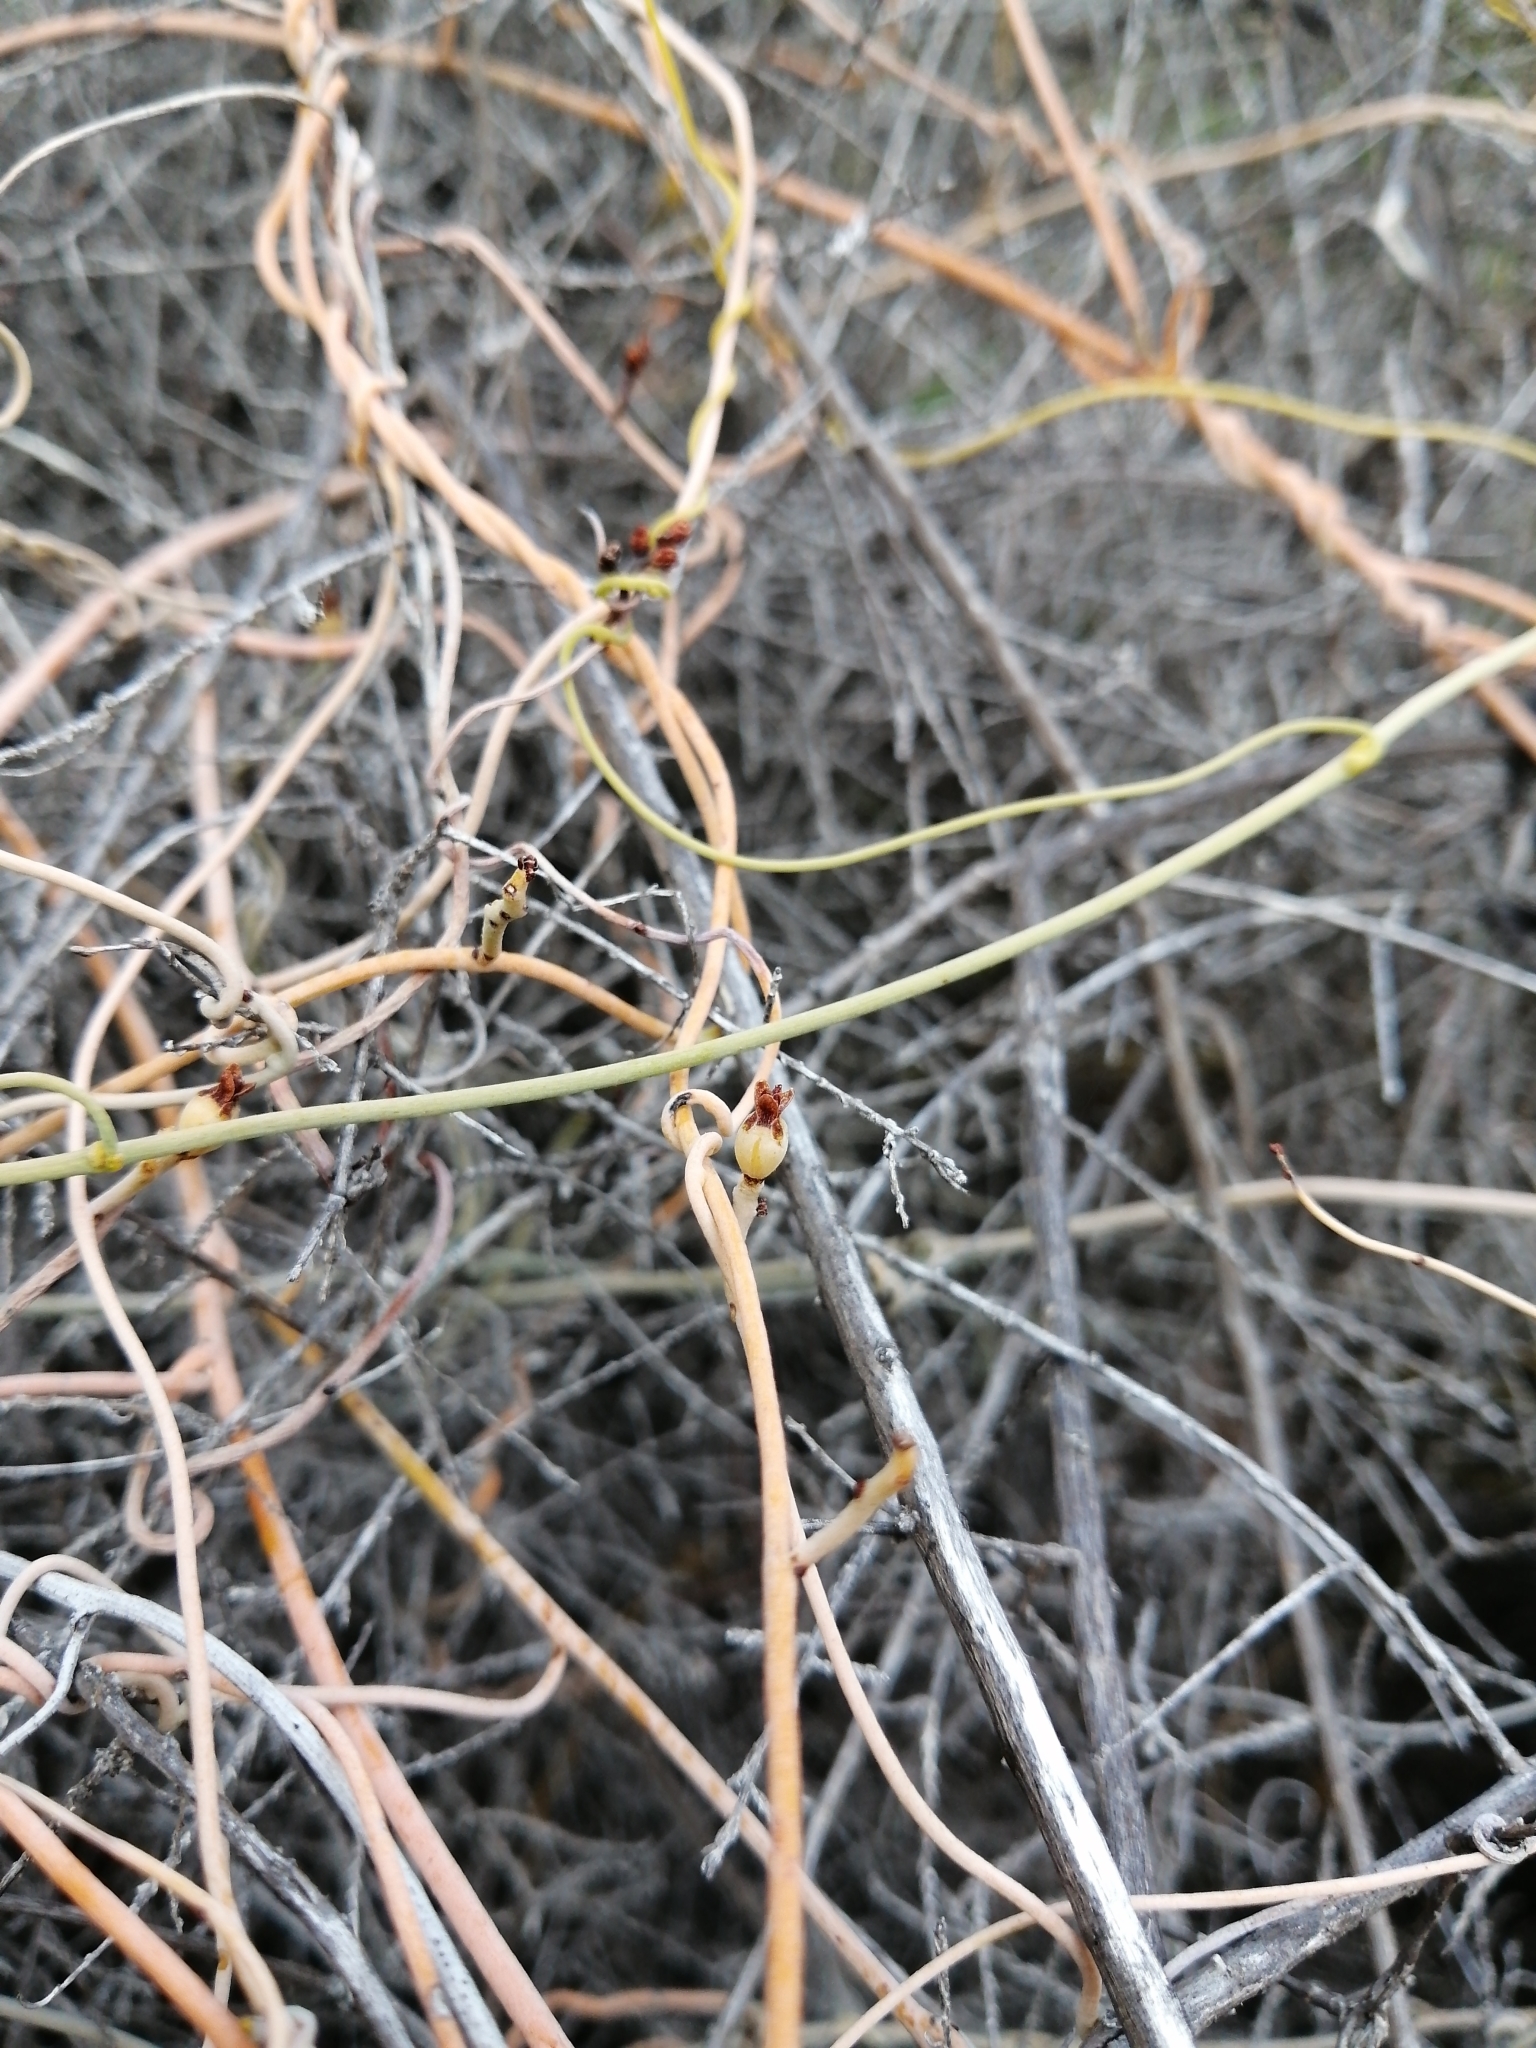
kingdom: Plantae
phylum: Tracheophyta
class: Magnoliopsida
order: Laurales
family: Lauraceae
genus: Cassytha
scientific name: Cassytha ciliolata
